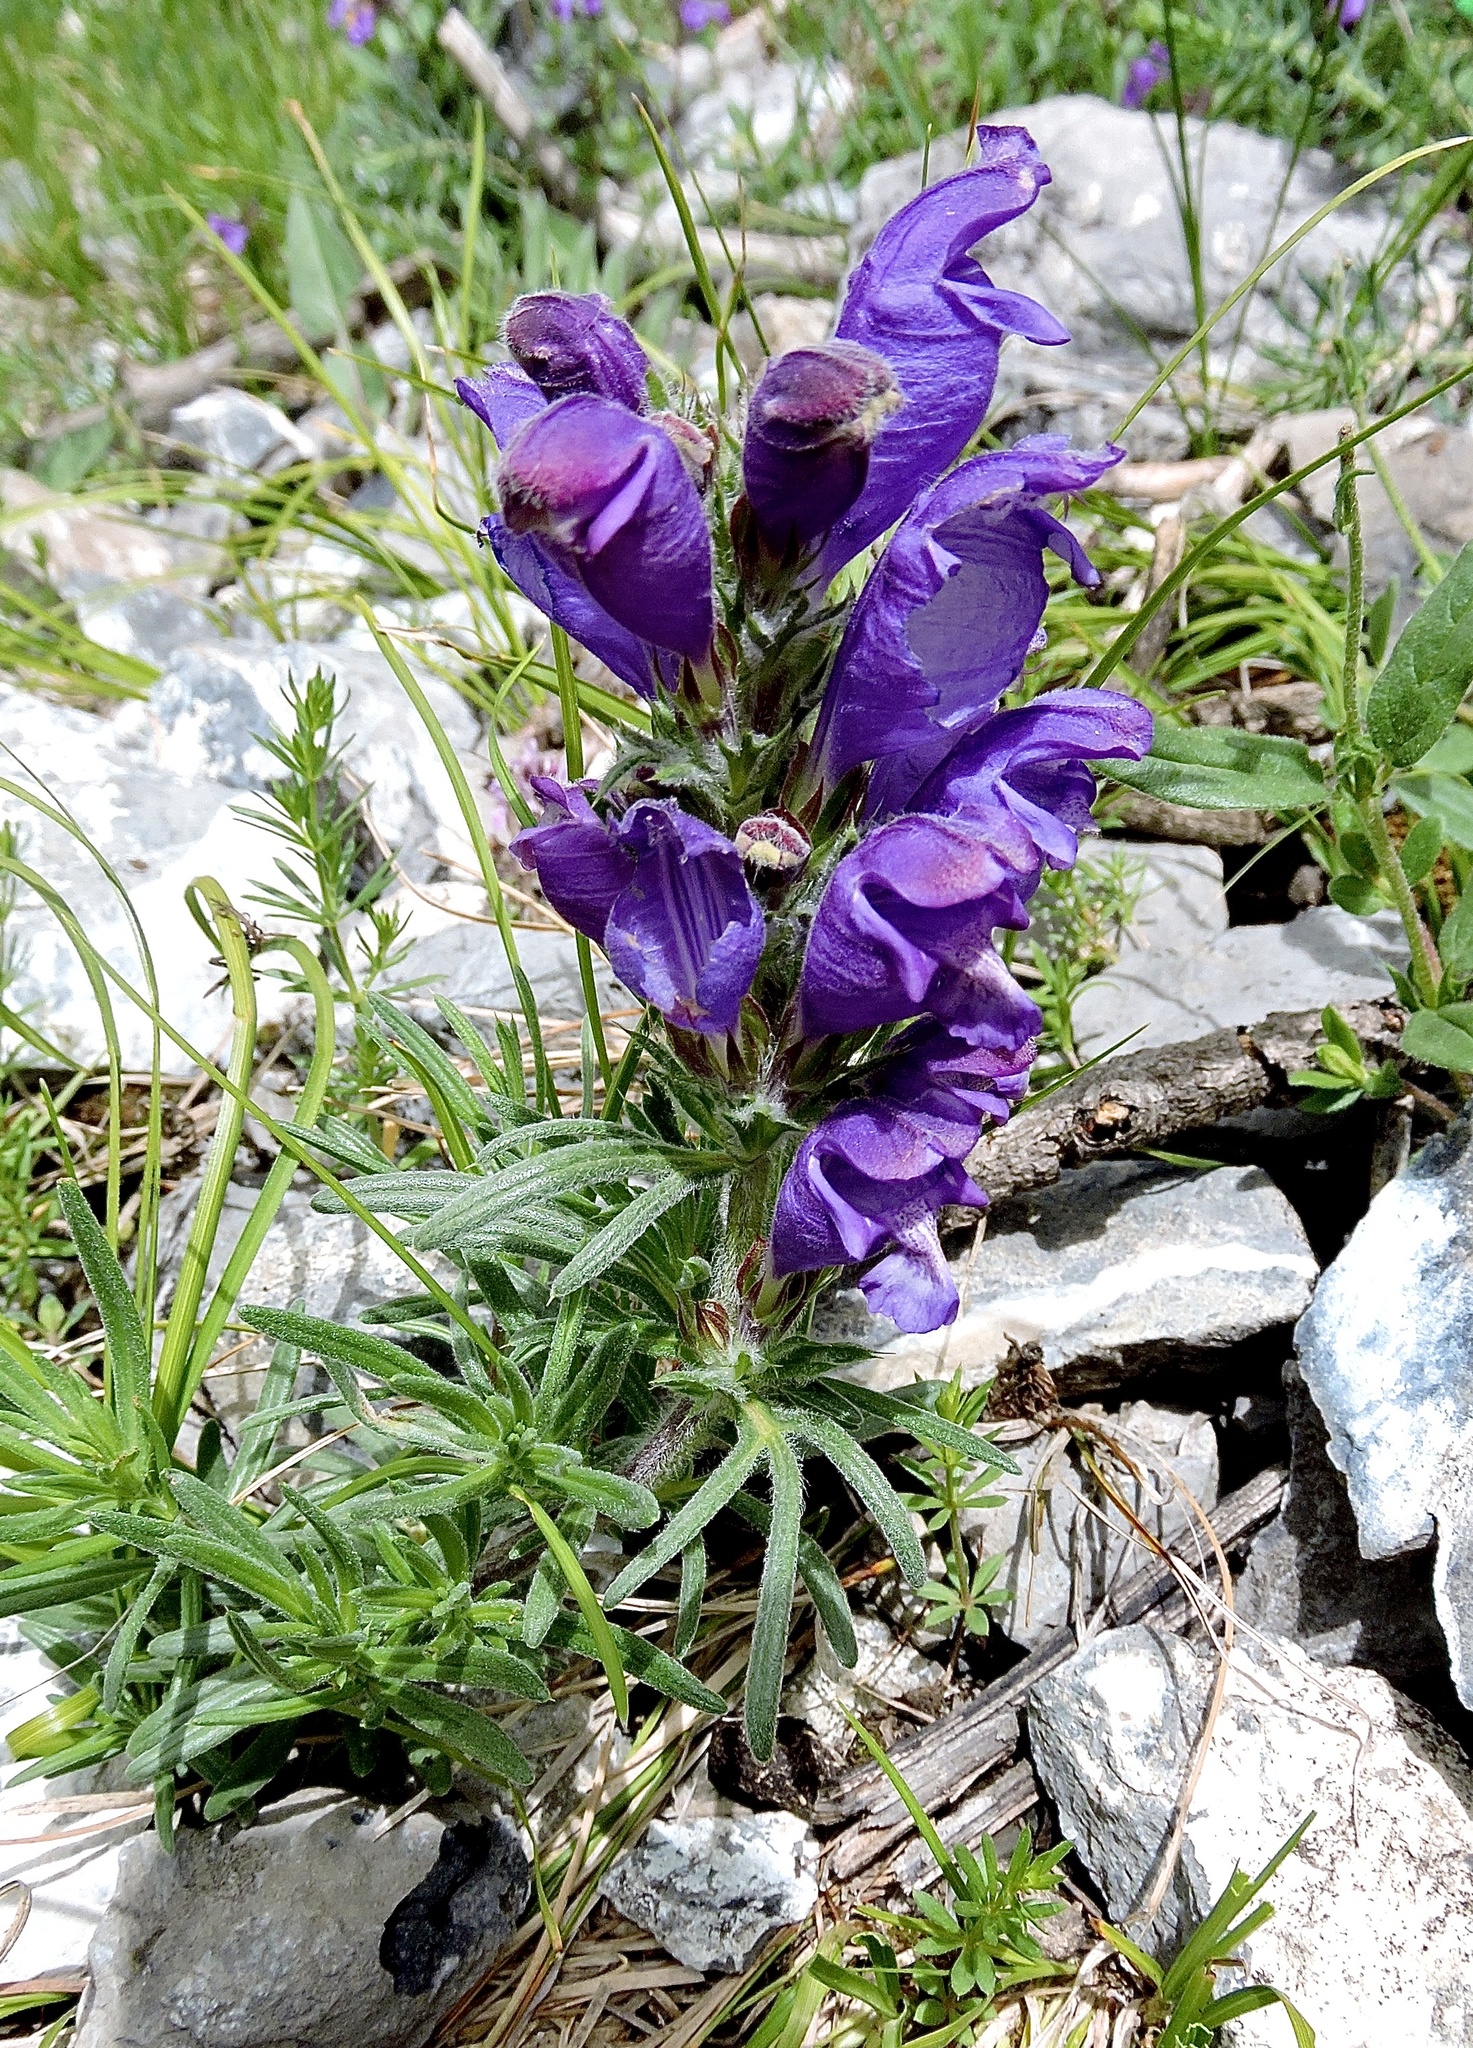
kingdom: Plantae
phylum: Tracheophyta
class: Magnoliopsida
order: Lamiales
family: Lamiaceae
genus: Dracocephalum
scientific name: Dracocephalum austriacum
